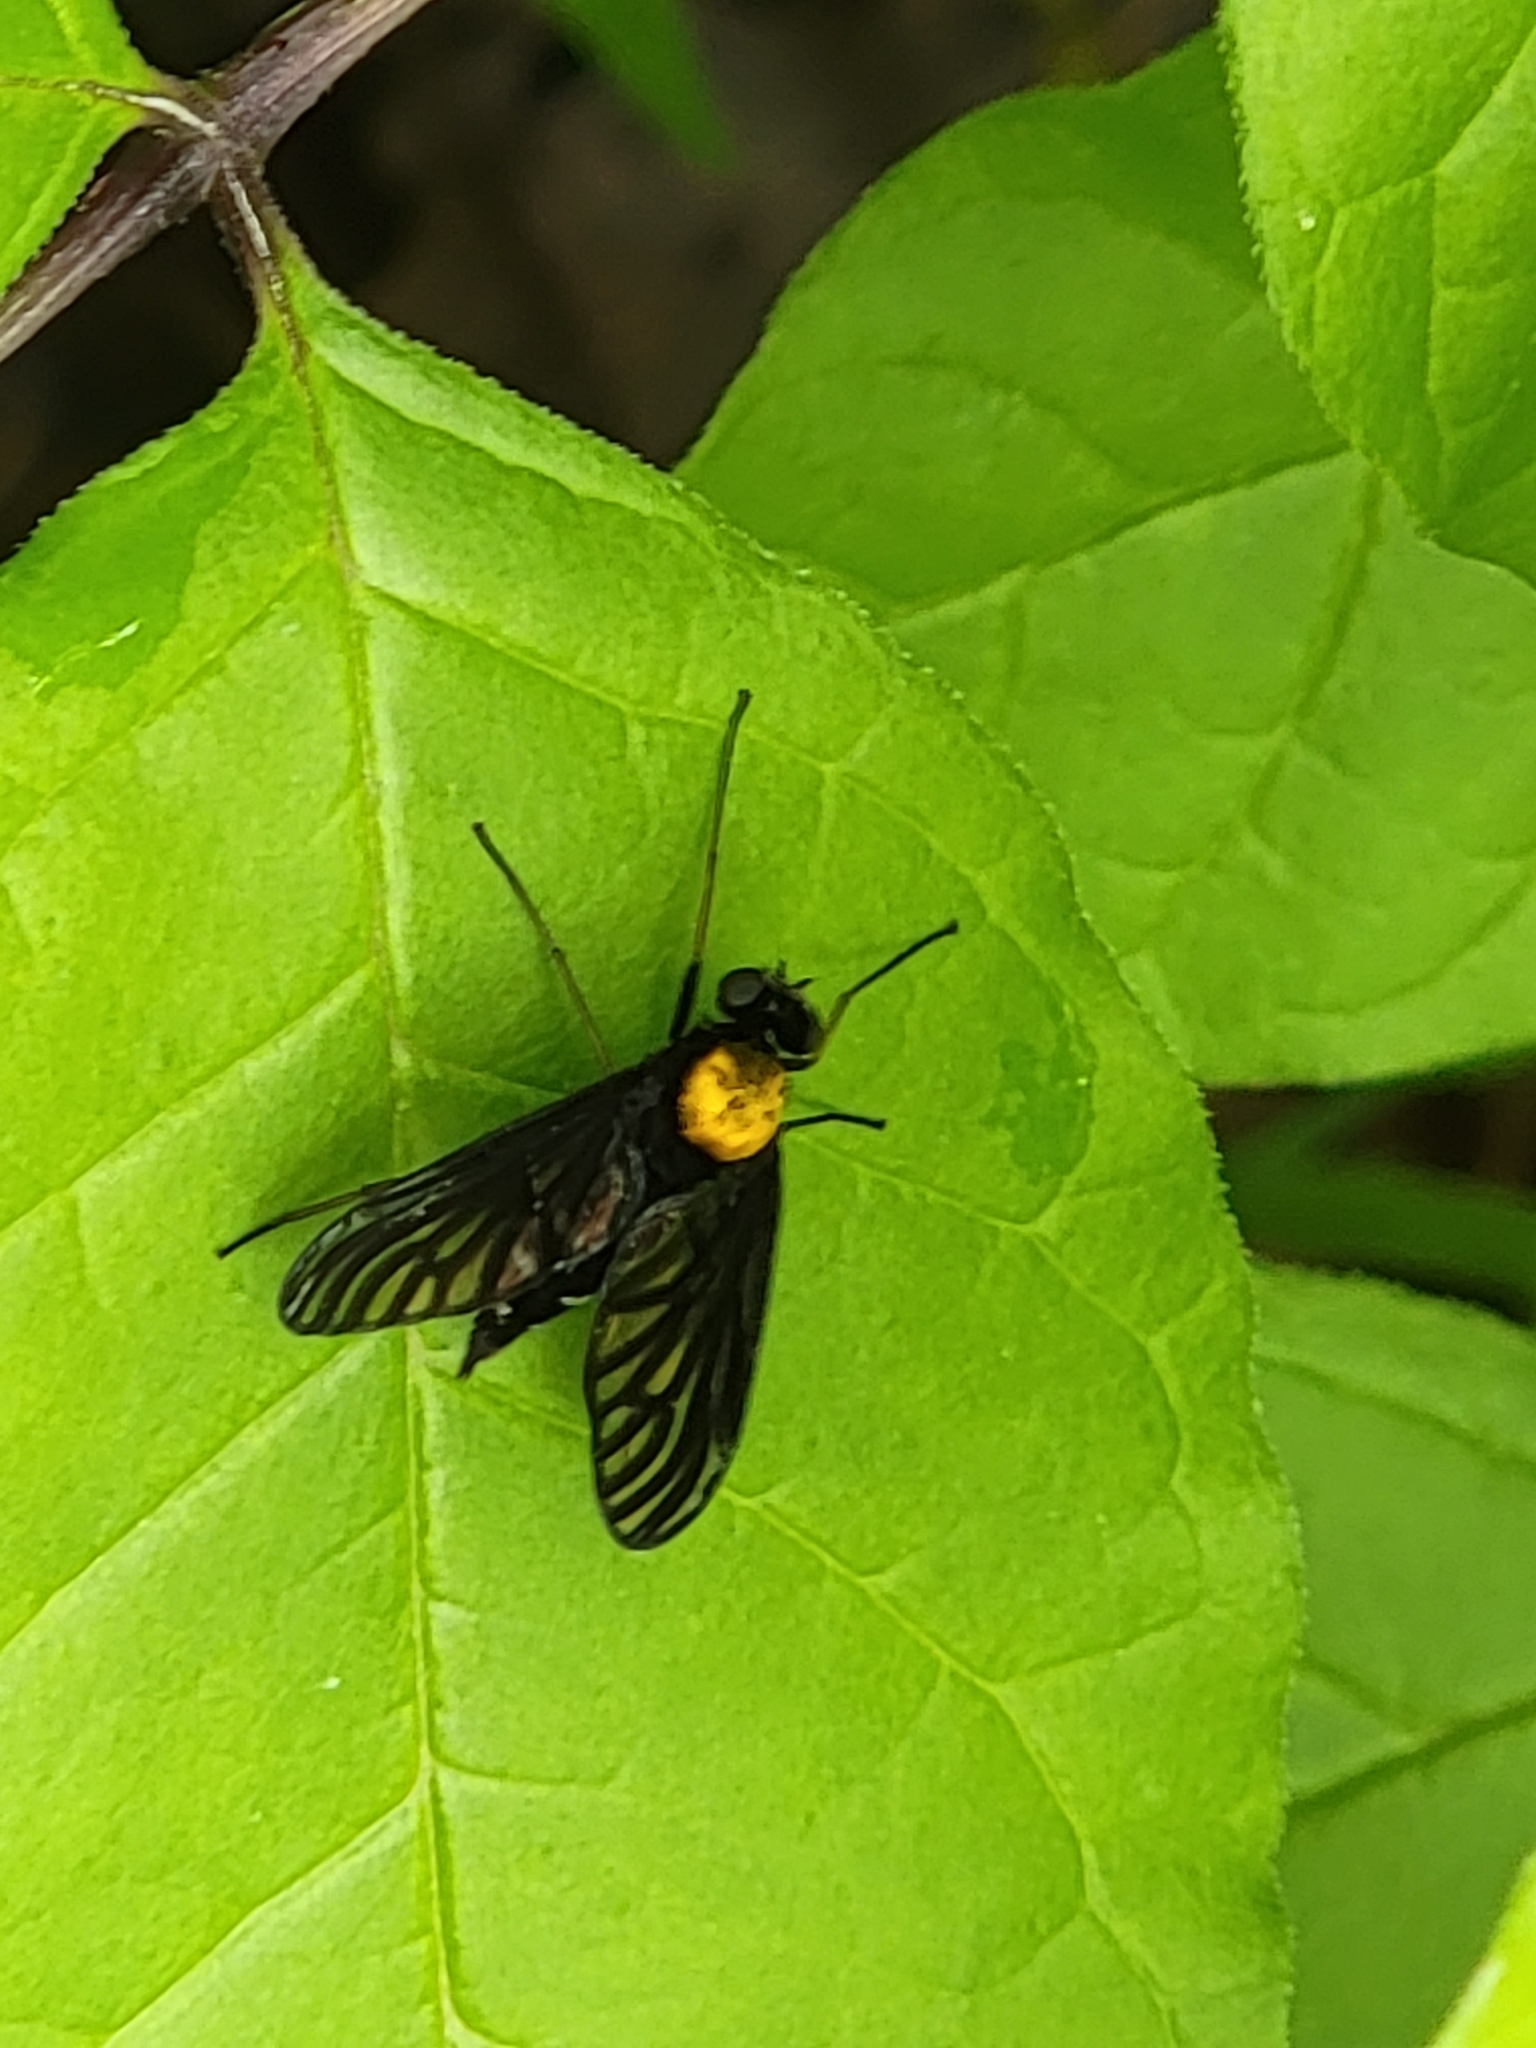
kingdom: Animalia
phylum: Arthropoda
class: Insecta
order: Diptera
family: Rhagionidae
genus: Chrysopilus
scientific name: Chrysopilus thoracicus
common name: Golden-backed snipe fly
